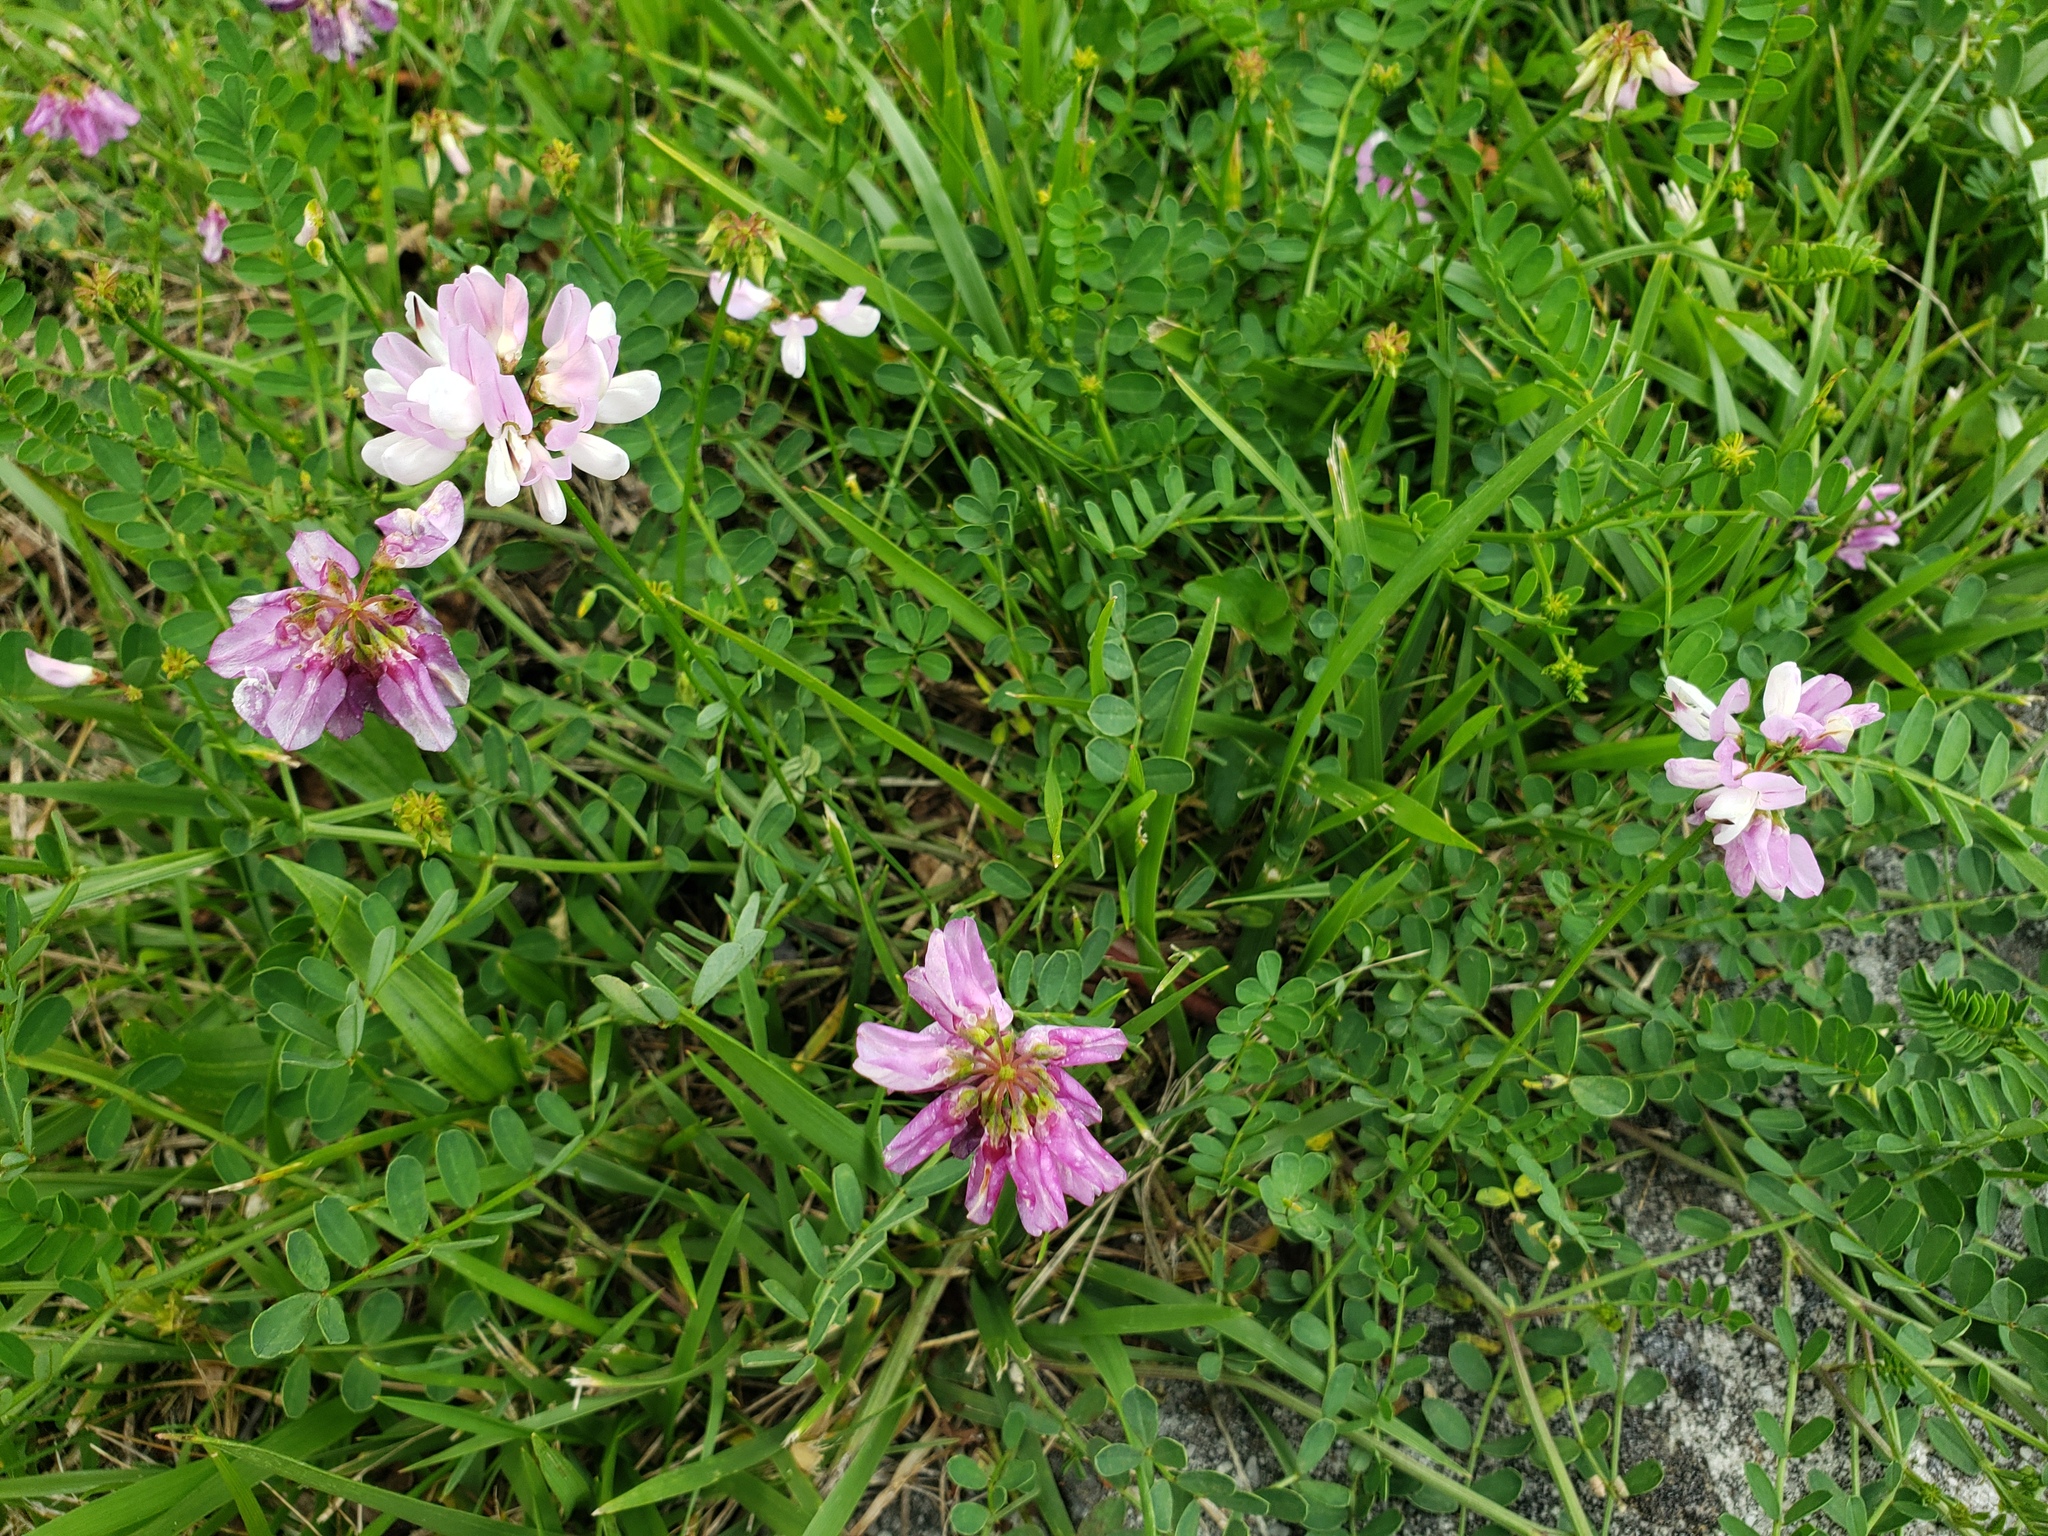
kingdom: Plantae
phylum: Tracheophyta
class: Magnoliopsida
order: Fabales
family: Fabaceae
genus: Coronilla
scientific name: Coronilla varia
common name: Crownvetch
